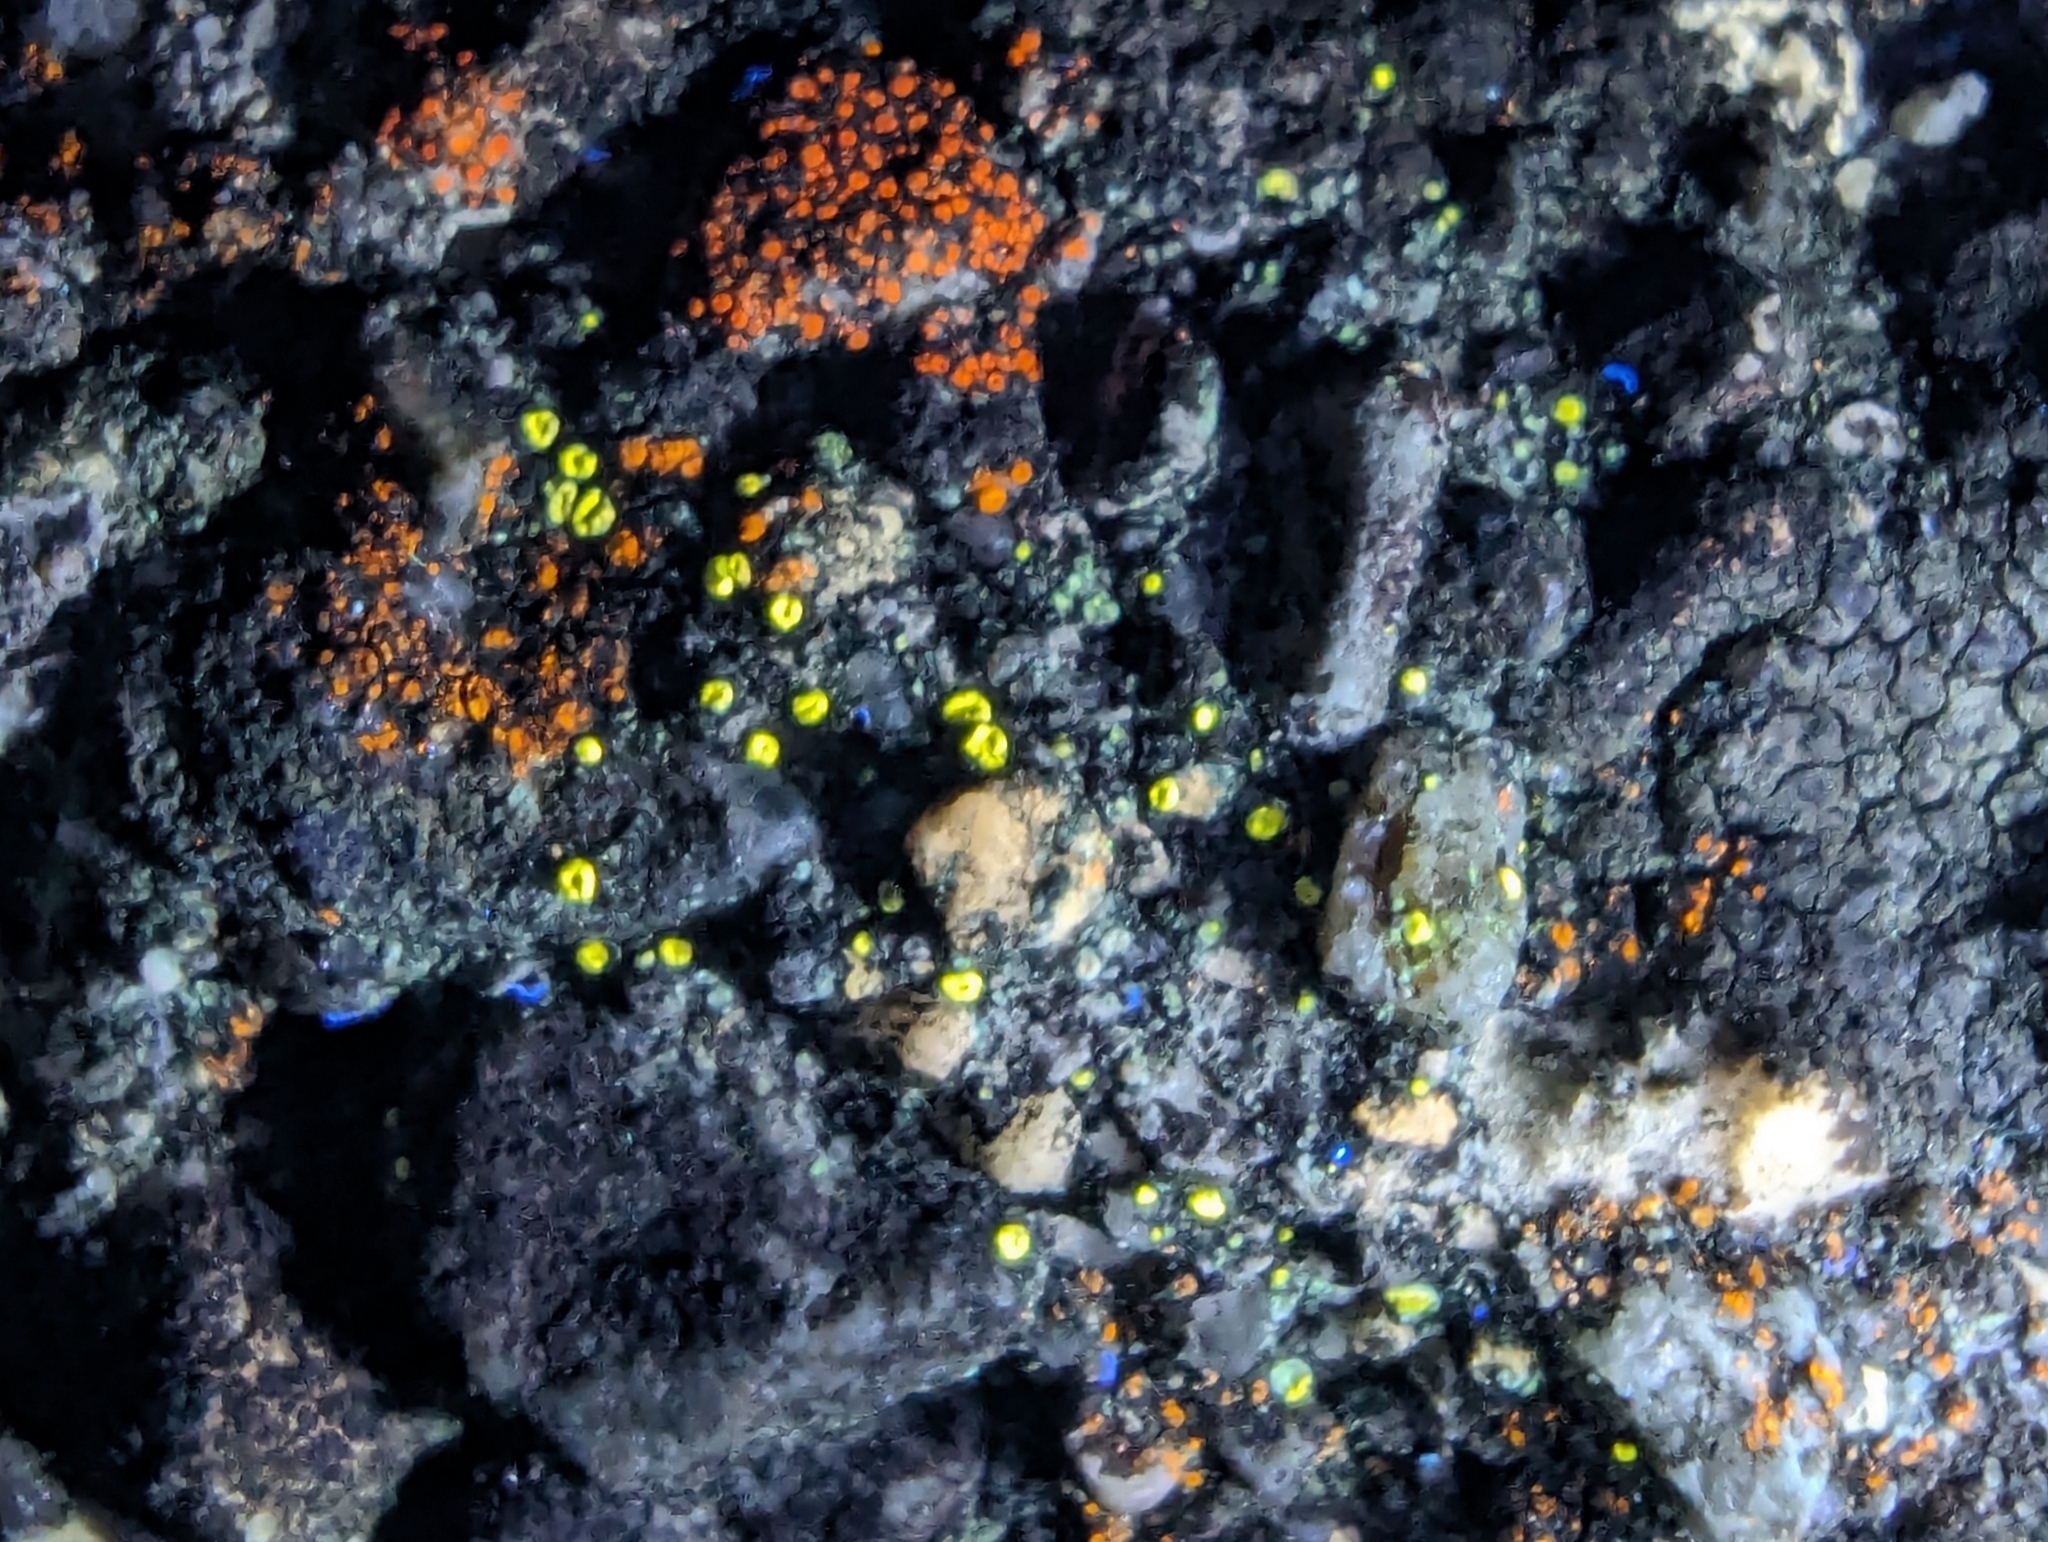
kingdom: Fungi
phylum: Ascomycota
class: Lecanoromycetes
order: Lecanorales
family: Lecanoraceae
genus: Polyozosia
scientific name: Polyozosia semipallida
